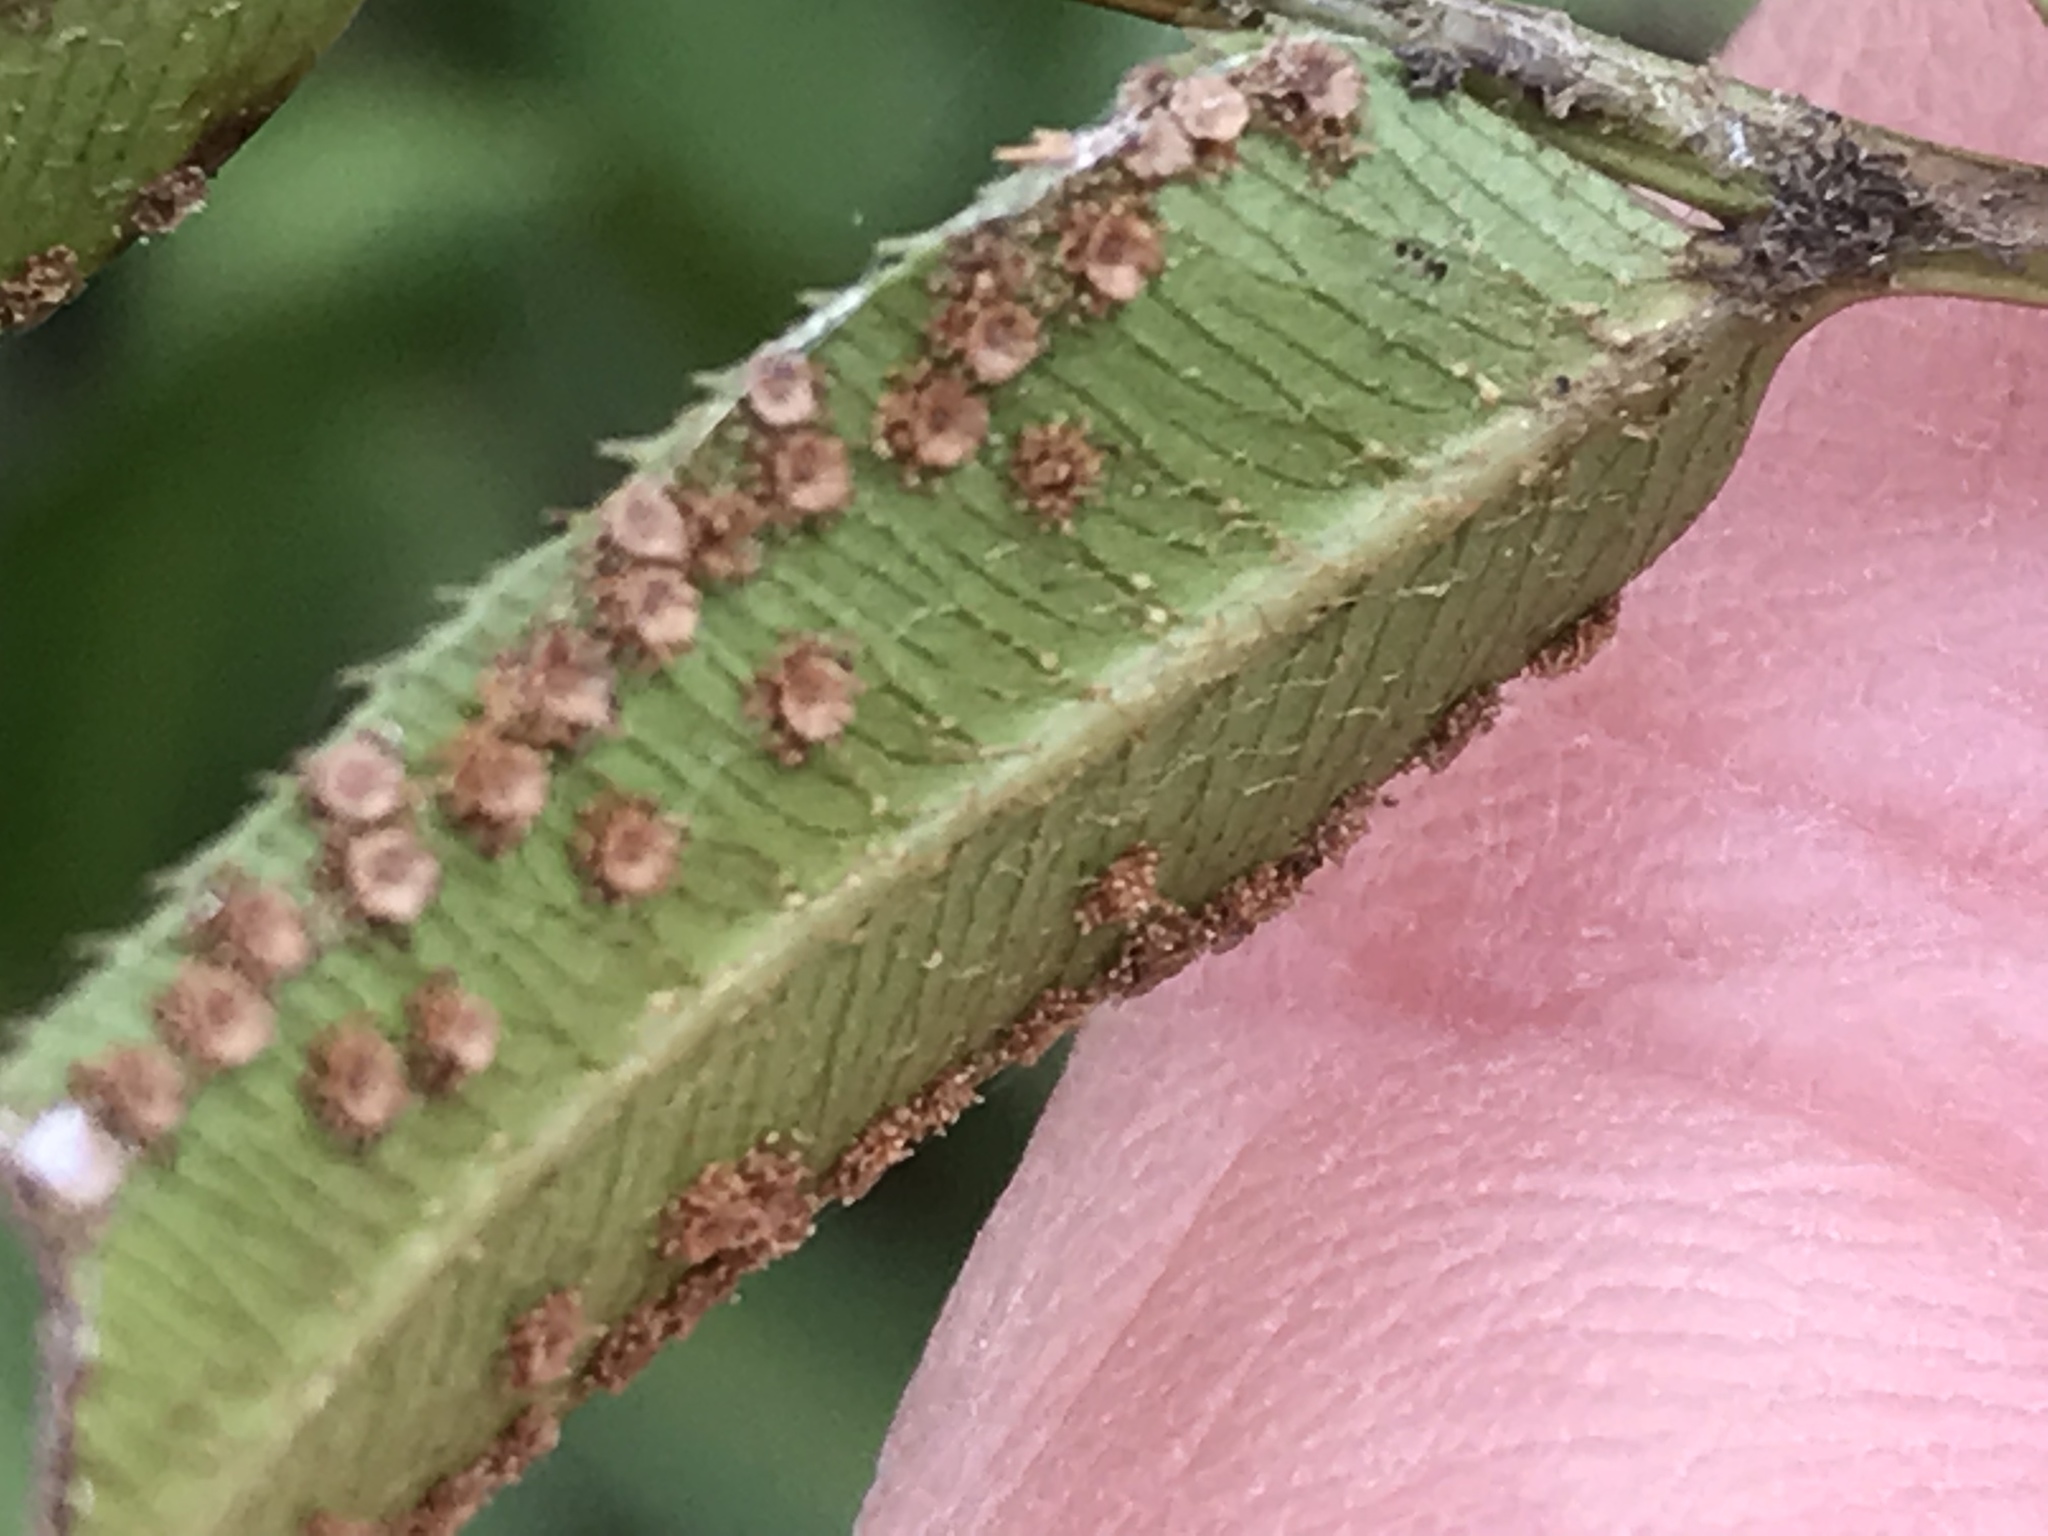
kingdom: Plantae
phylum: Tracheophyta
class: Polypodiopsida
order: Polypodiales
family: Dryopteridaceae
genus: Phanerophlebia
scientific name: Phanerophlebia umbonata
